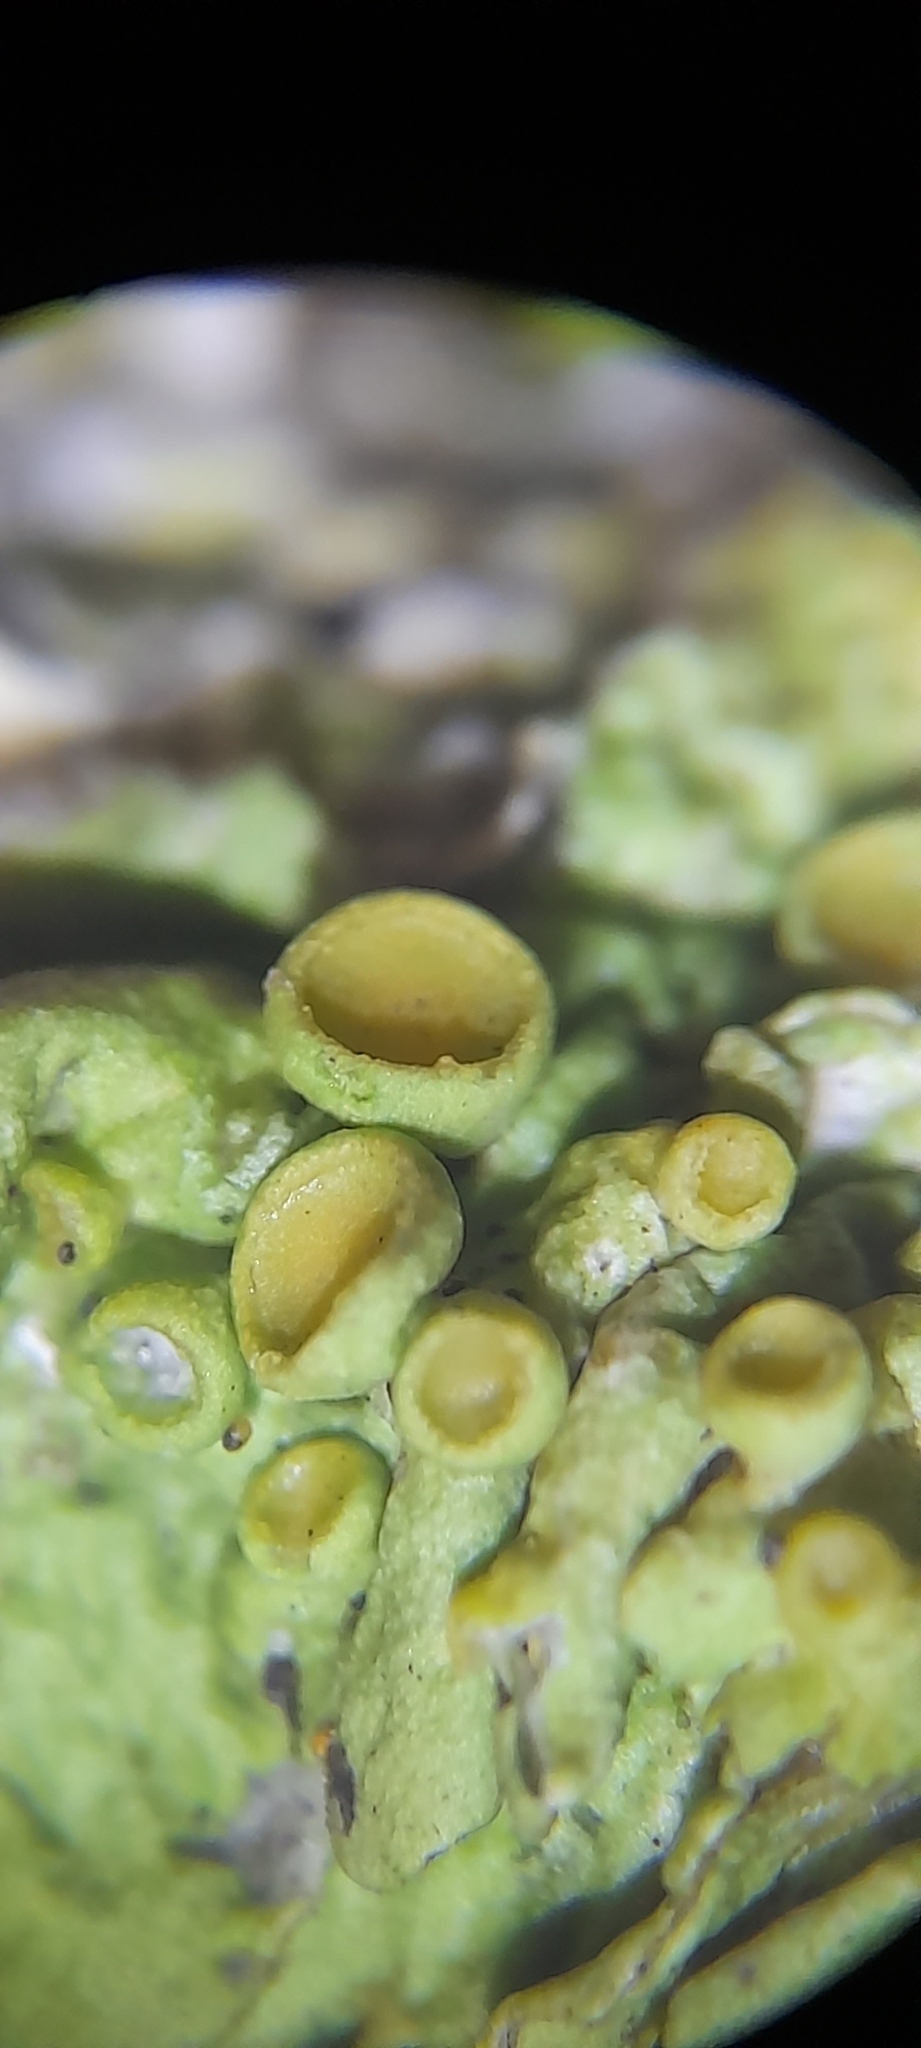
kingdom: Fungi
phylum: Ascomycota
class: Lecanoromycetes
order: Teloschistales
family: Teloschistaceae
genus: Xanthoria
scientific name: Xanthoria parietina
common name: Common orange lichen
